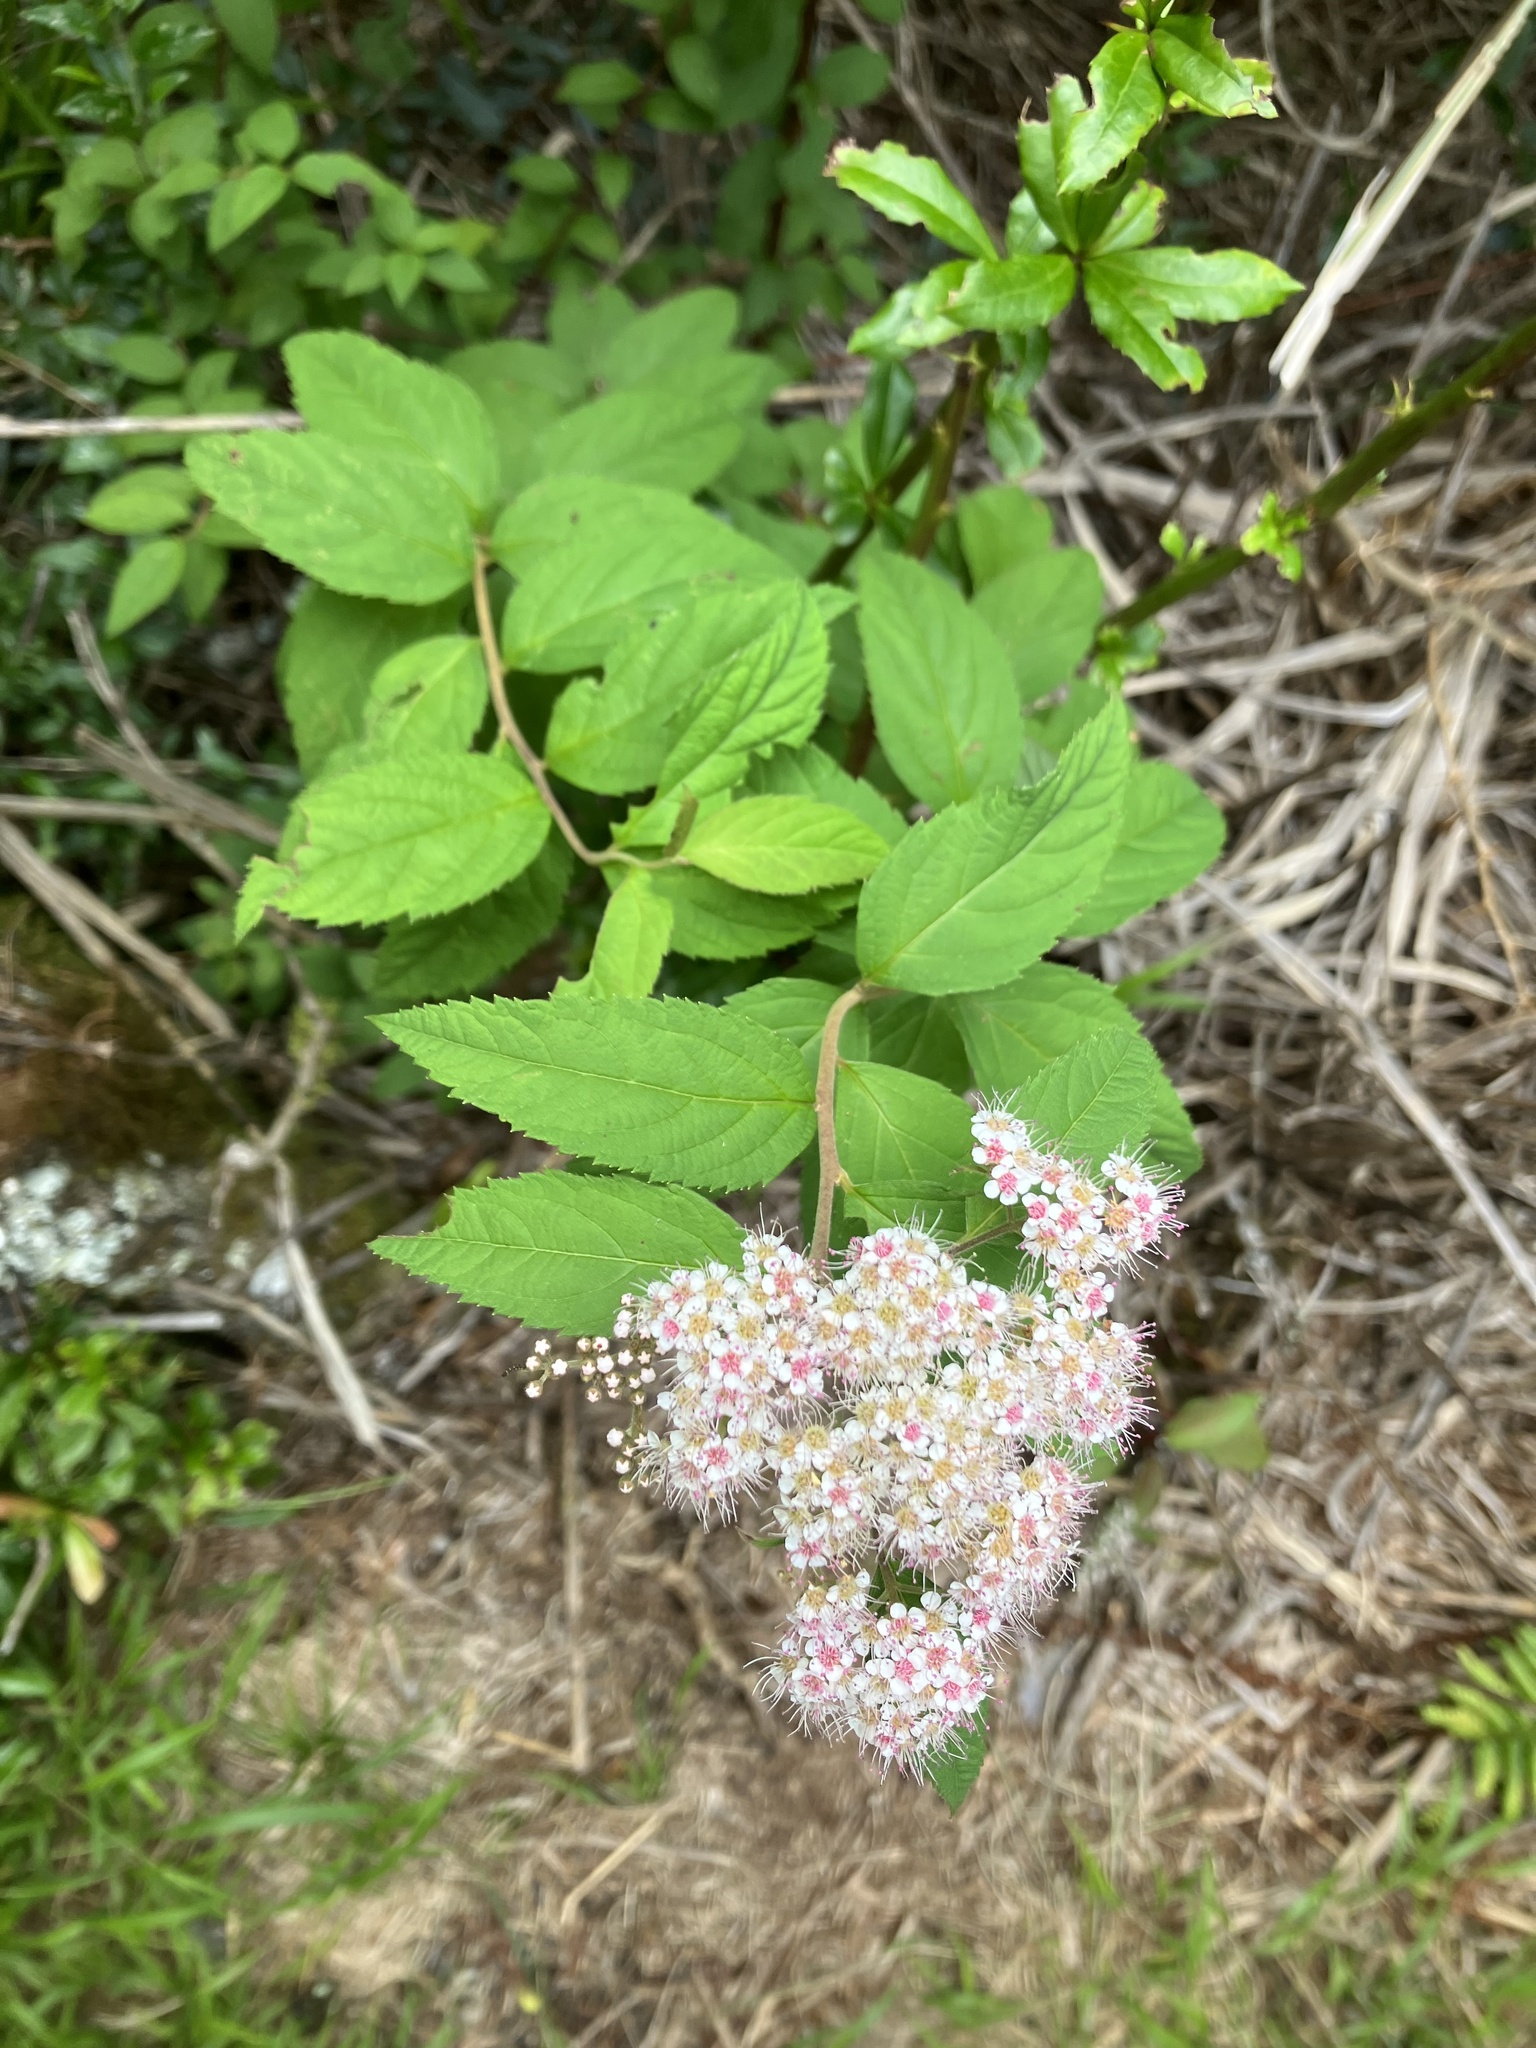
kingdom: Plantae
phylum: Tracheophyta
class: Magnoliopsida
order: Rosales
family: Rosaceae
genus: Spiraea
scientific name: Spiraea japonica
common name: Japanese spiraea
